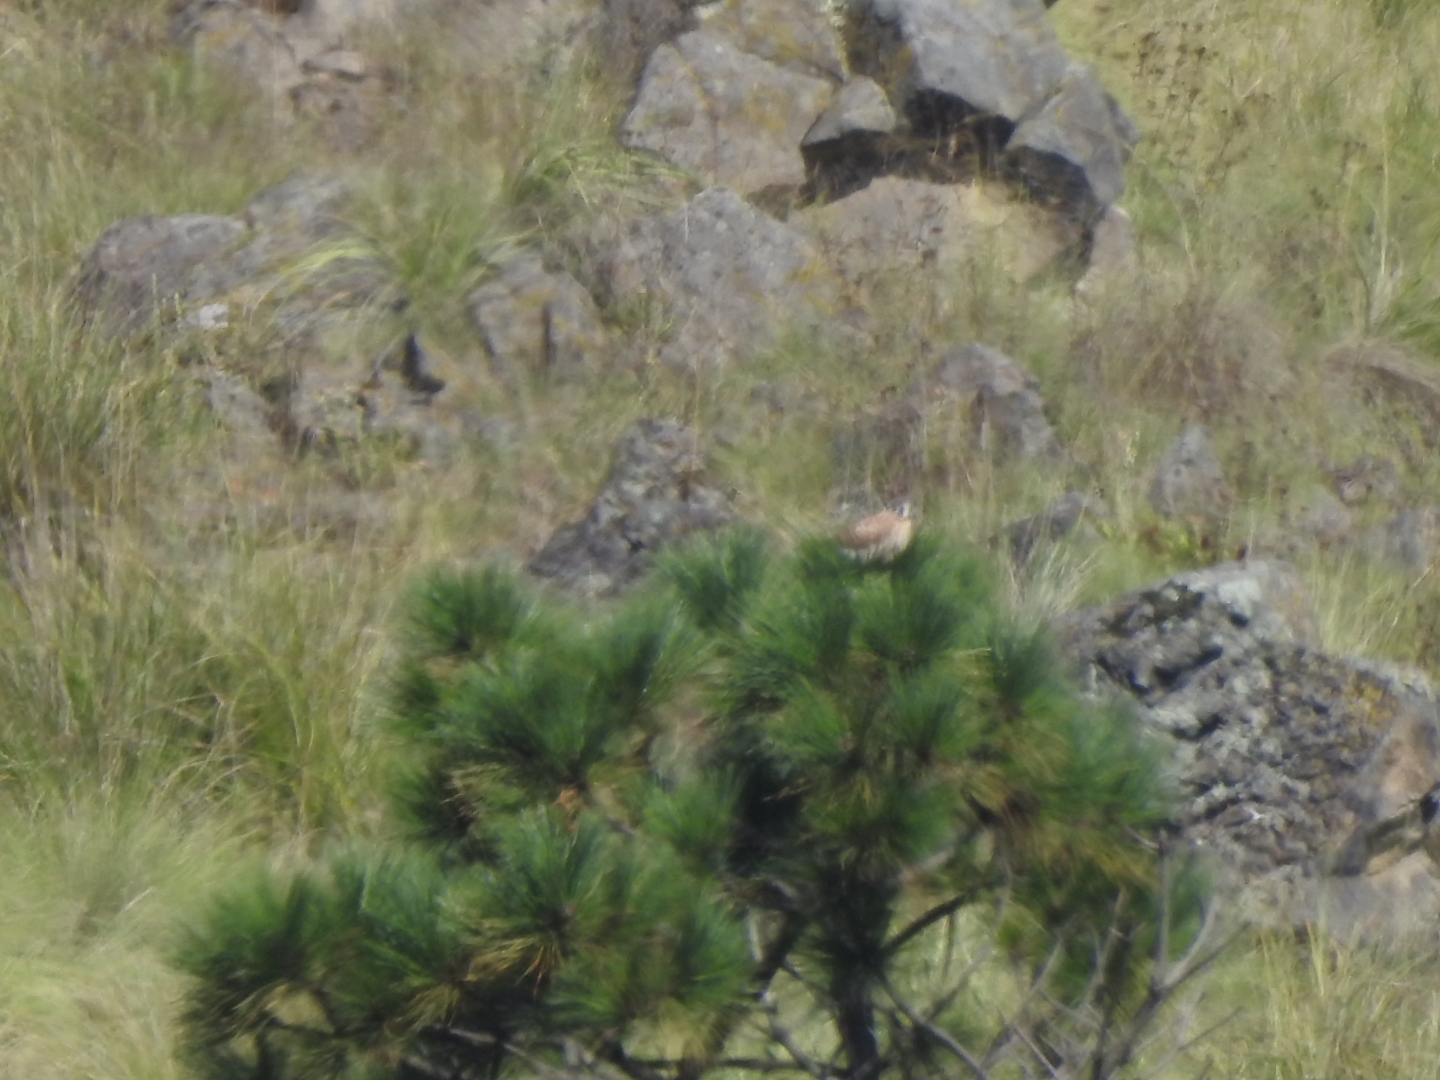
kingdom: Animalia
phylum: Chordata
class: Aves
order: Falconiformes
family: Falconidae
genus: Falco
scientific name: Falco sparverius
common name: American kestrel
